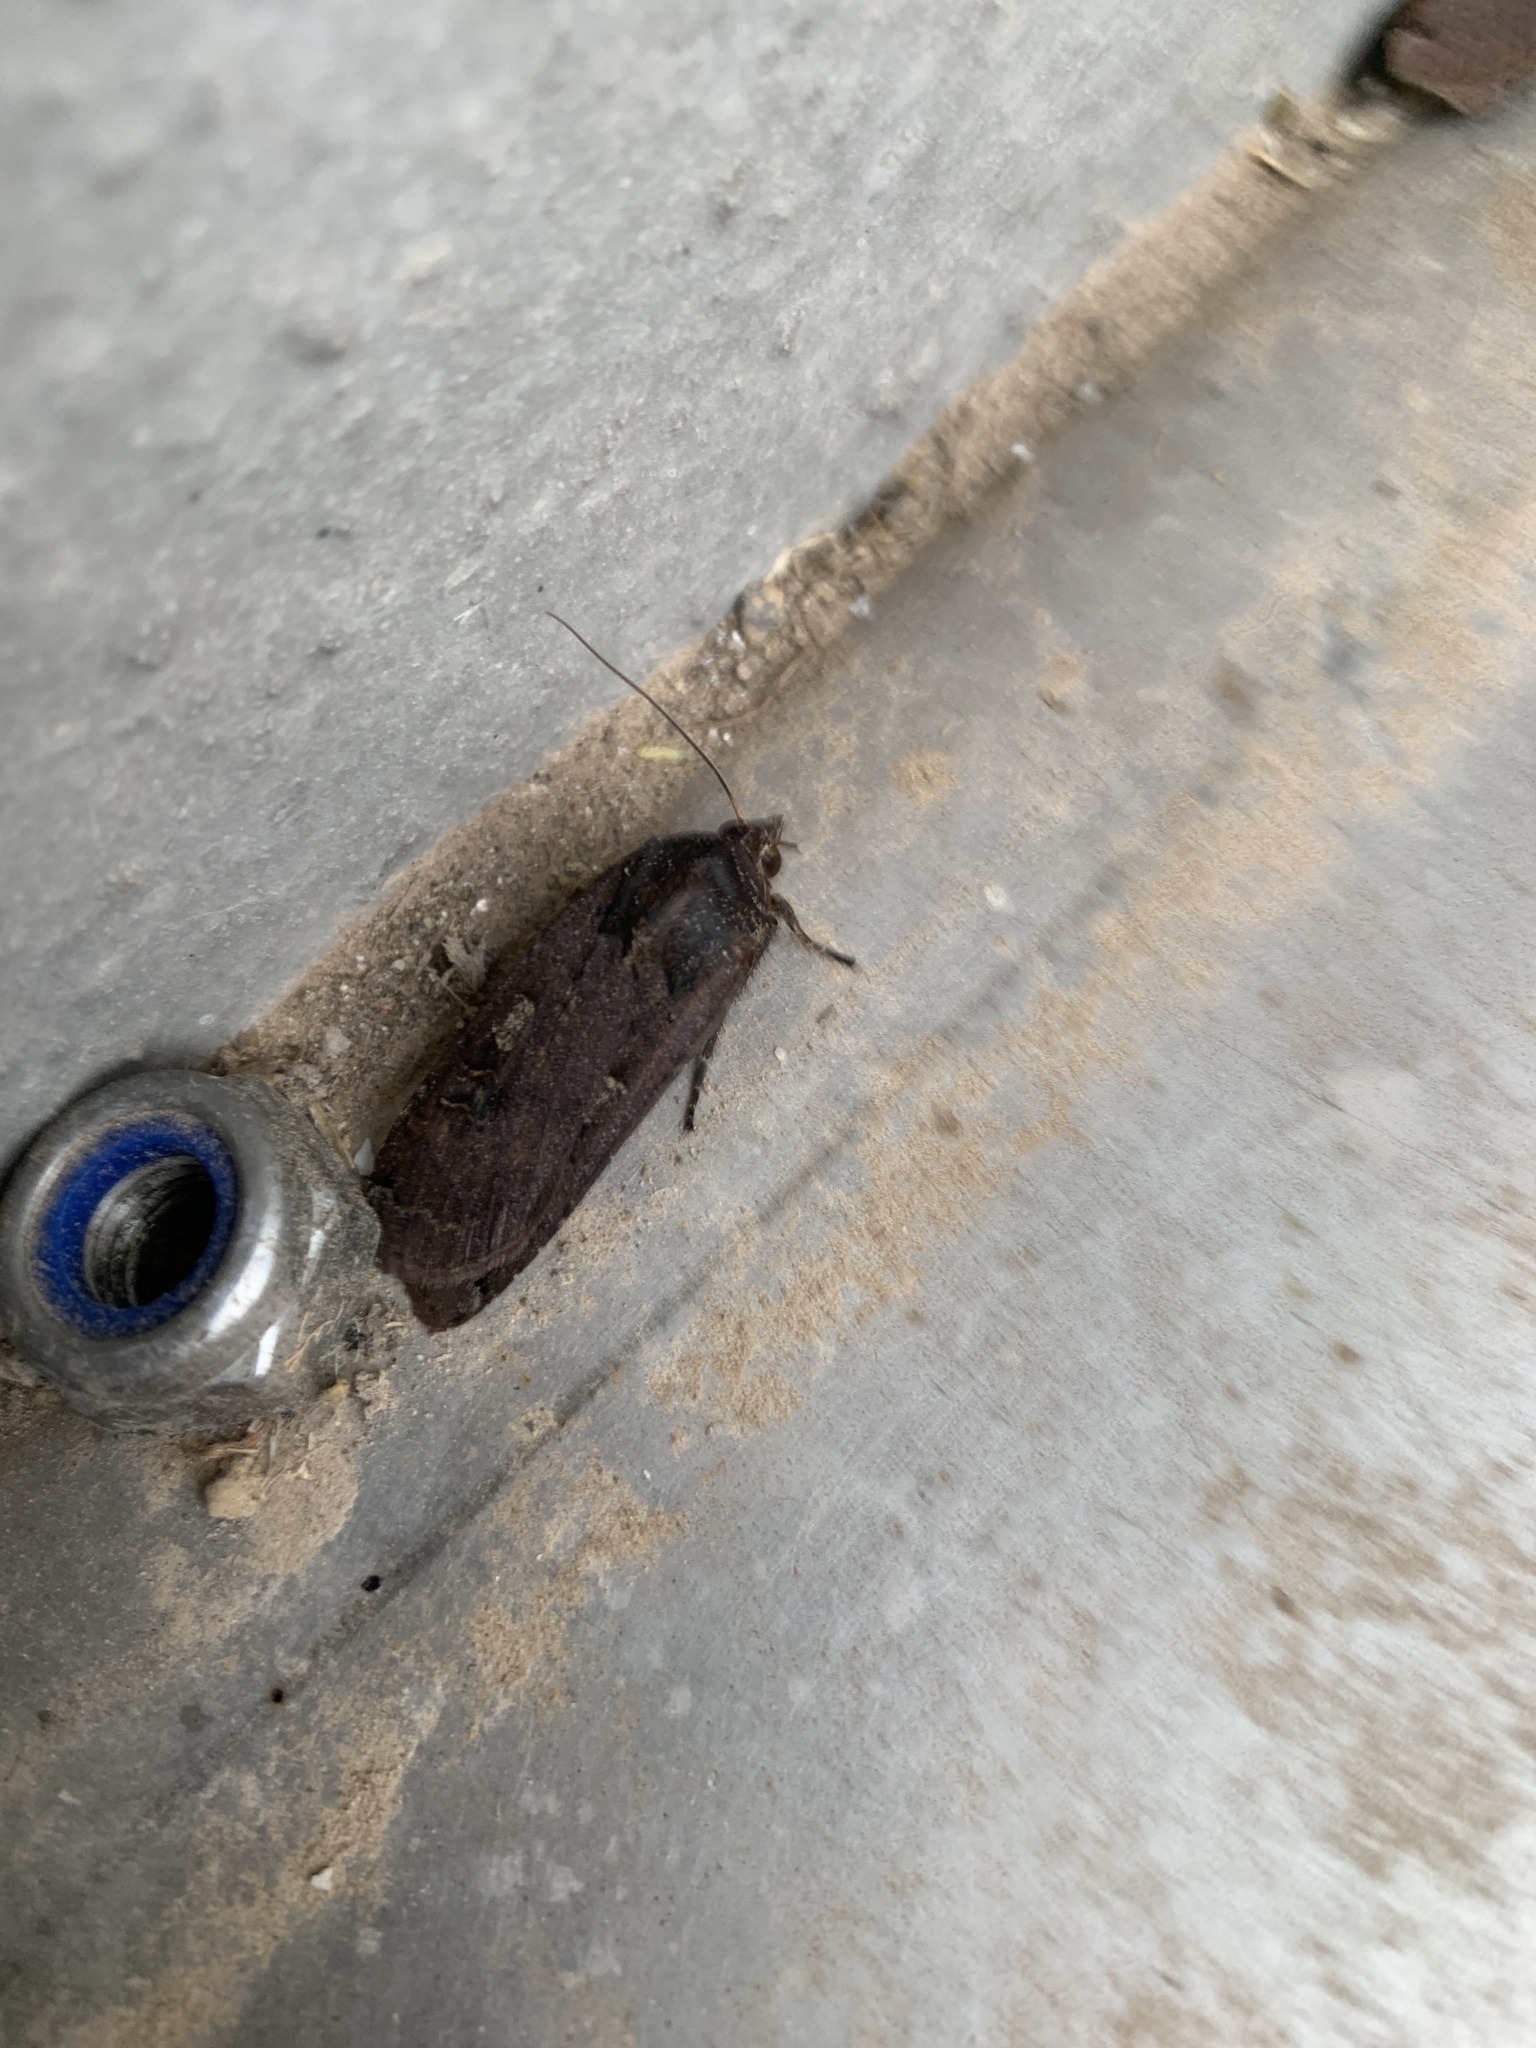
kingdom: Animalia
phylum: Arthropoda
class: Insecta
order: Lepidoptera
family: Noctuidae
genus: Euxoa
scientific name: Euxoa nigricans
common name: Garden dart
